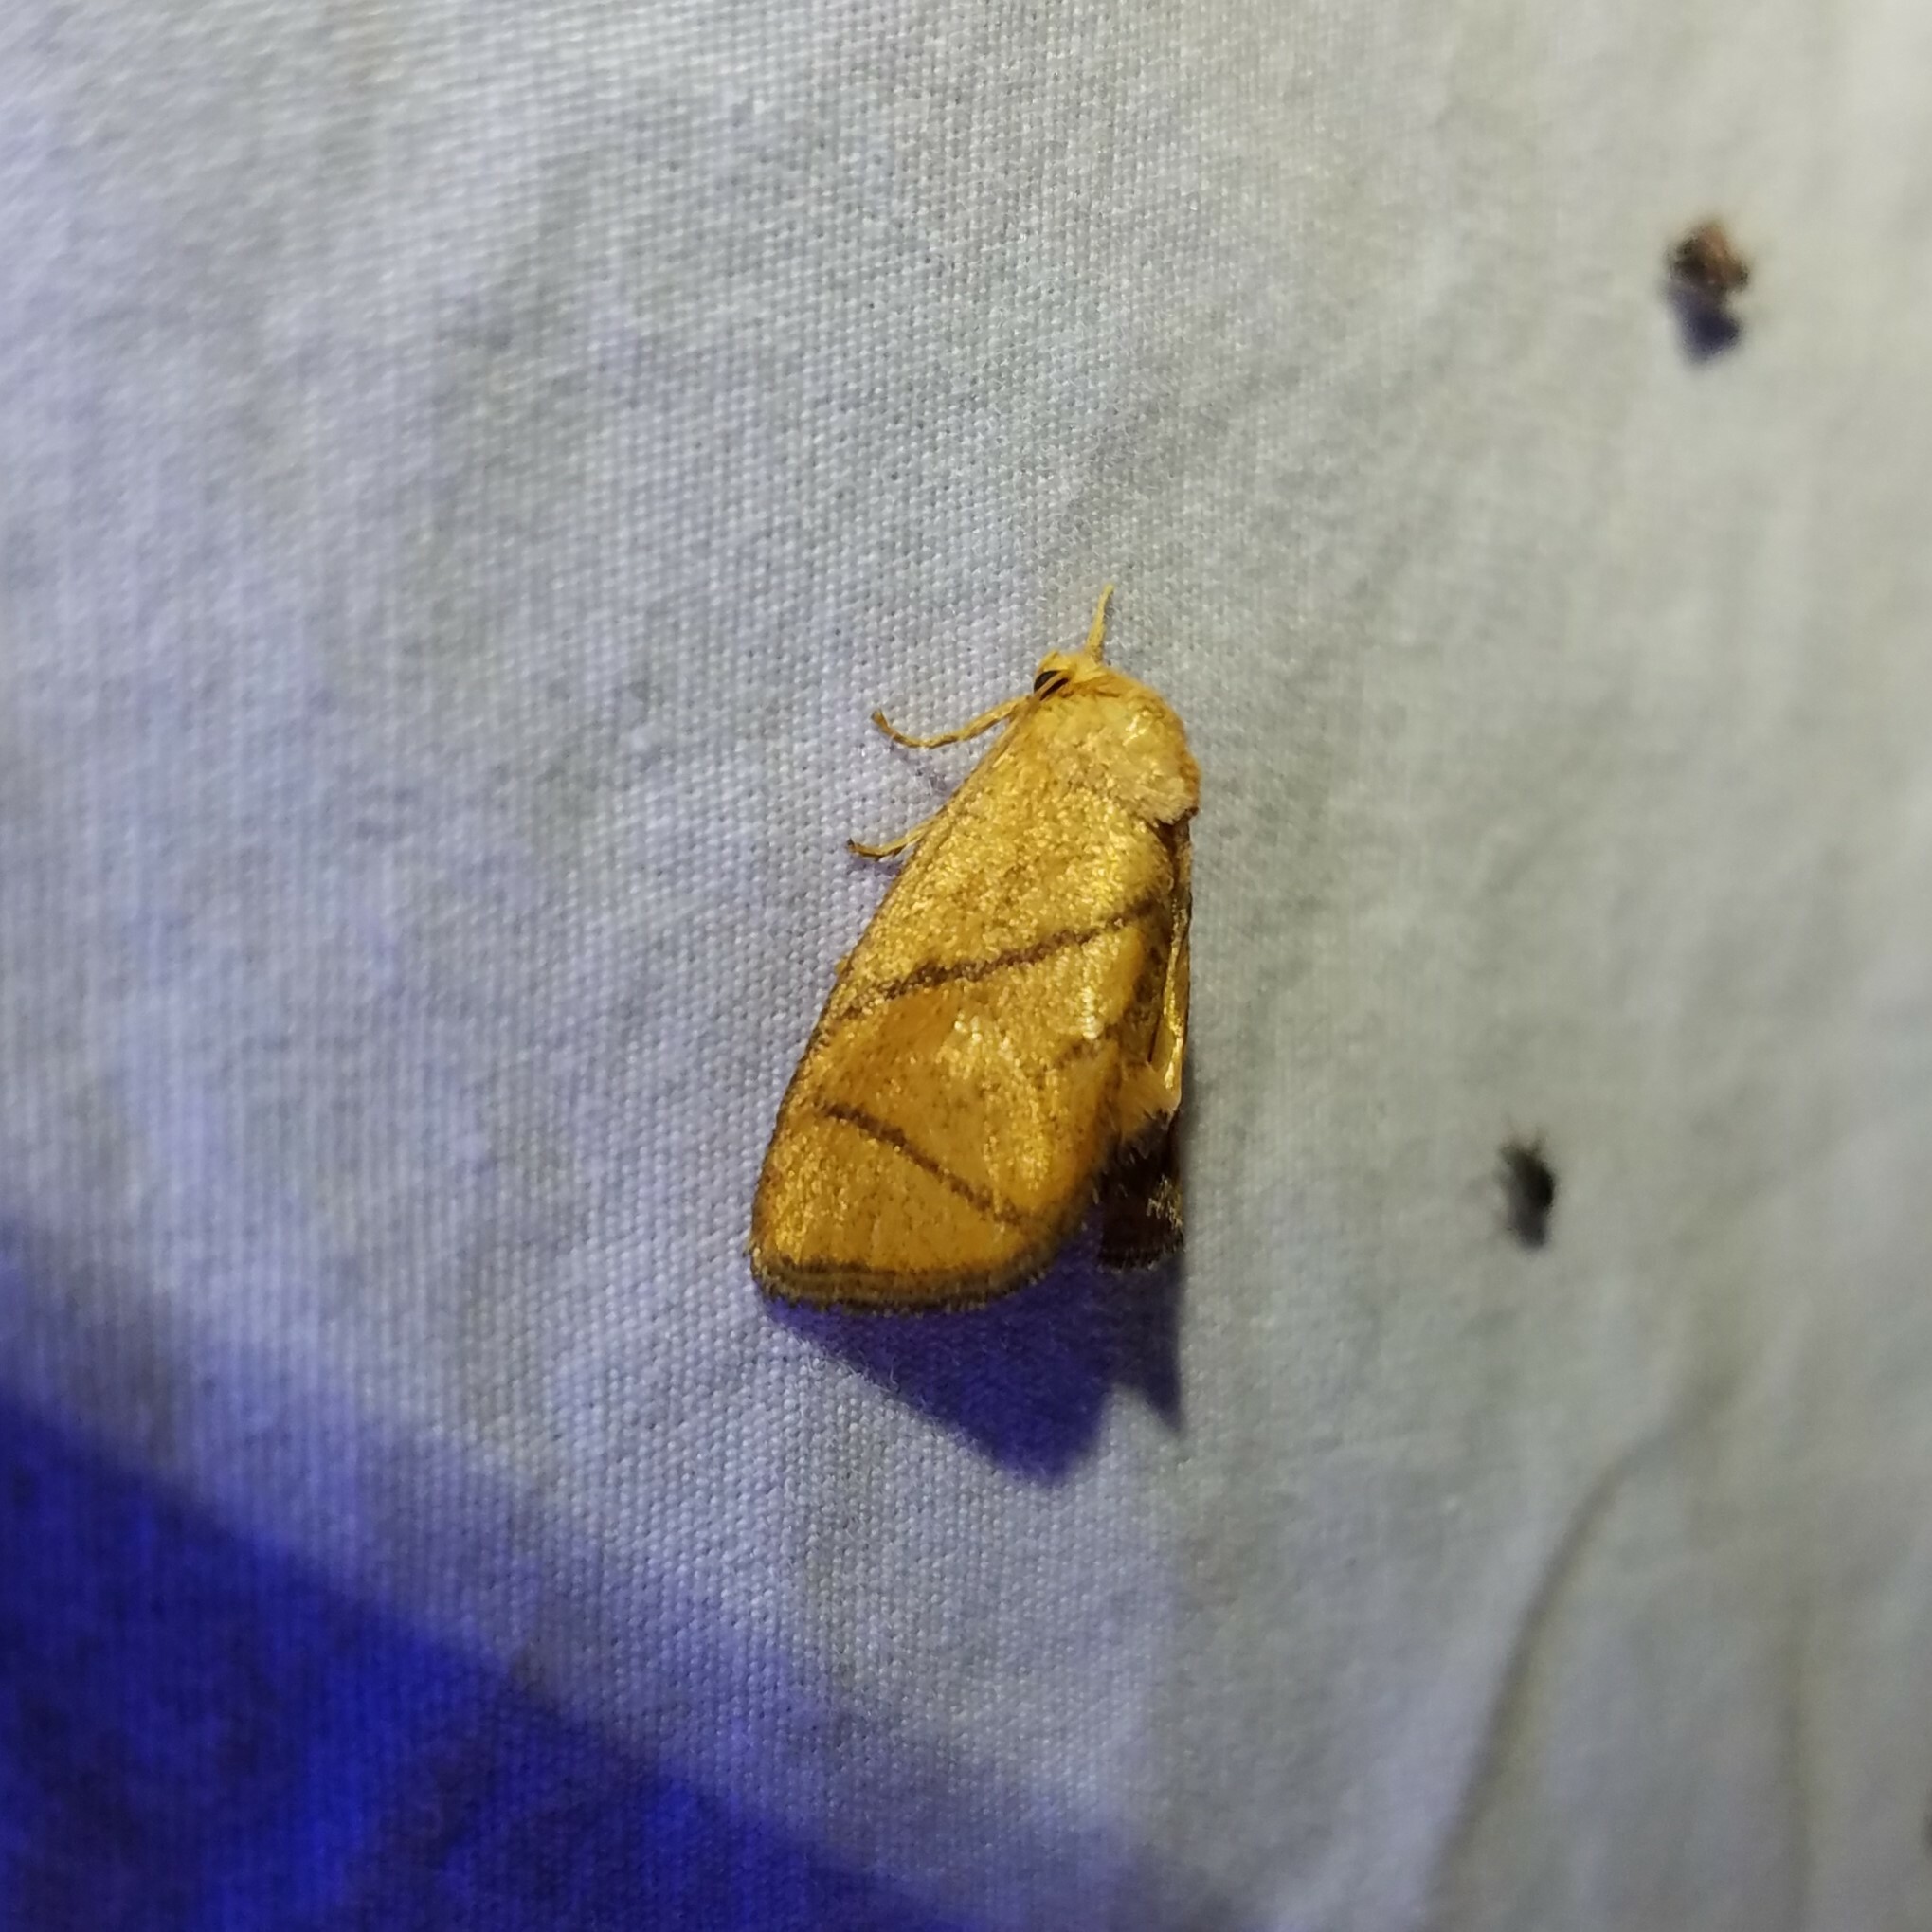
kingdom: Animalia
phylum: Arthropoda
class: Insecta
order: Lepidoptera
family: Limacodidae
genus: Apoda
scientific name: Apoda y-inversa
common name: Yellow-collared slug moth
